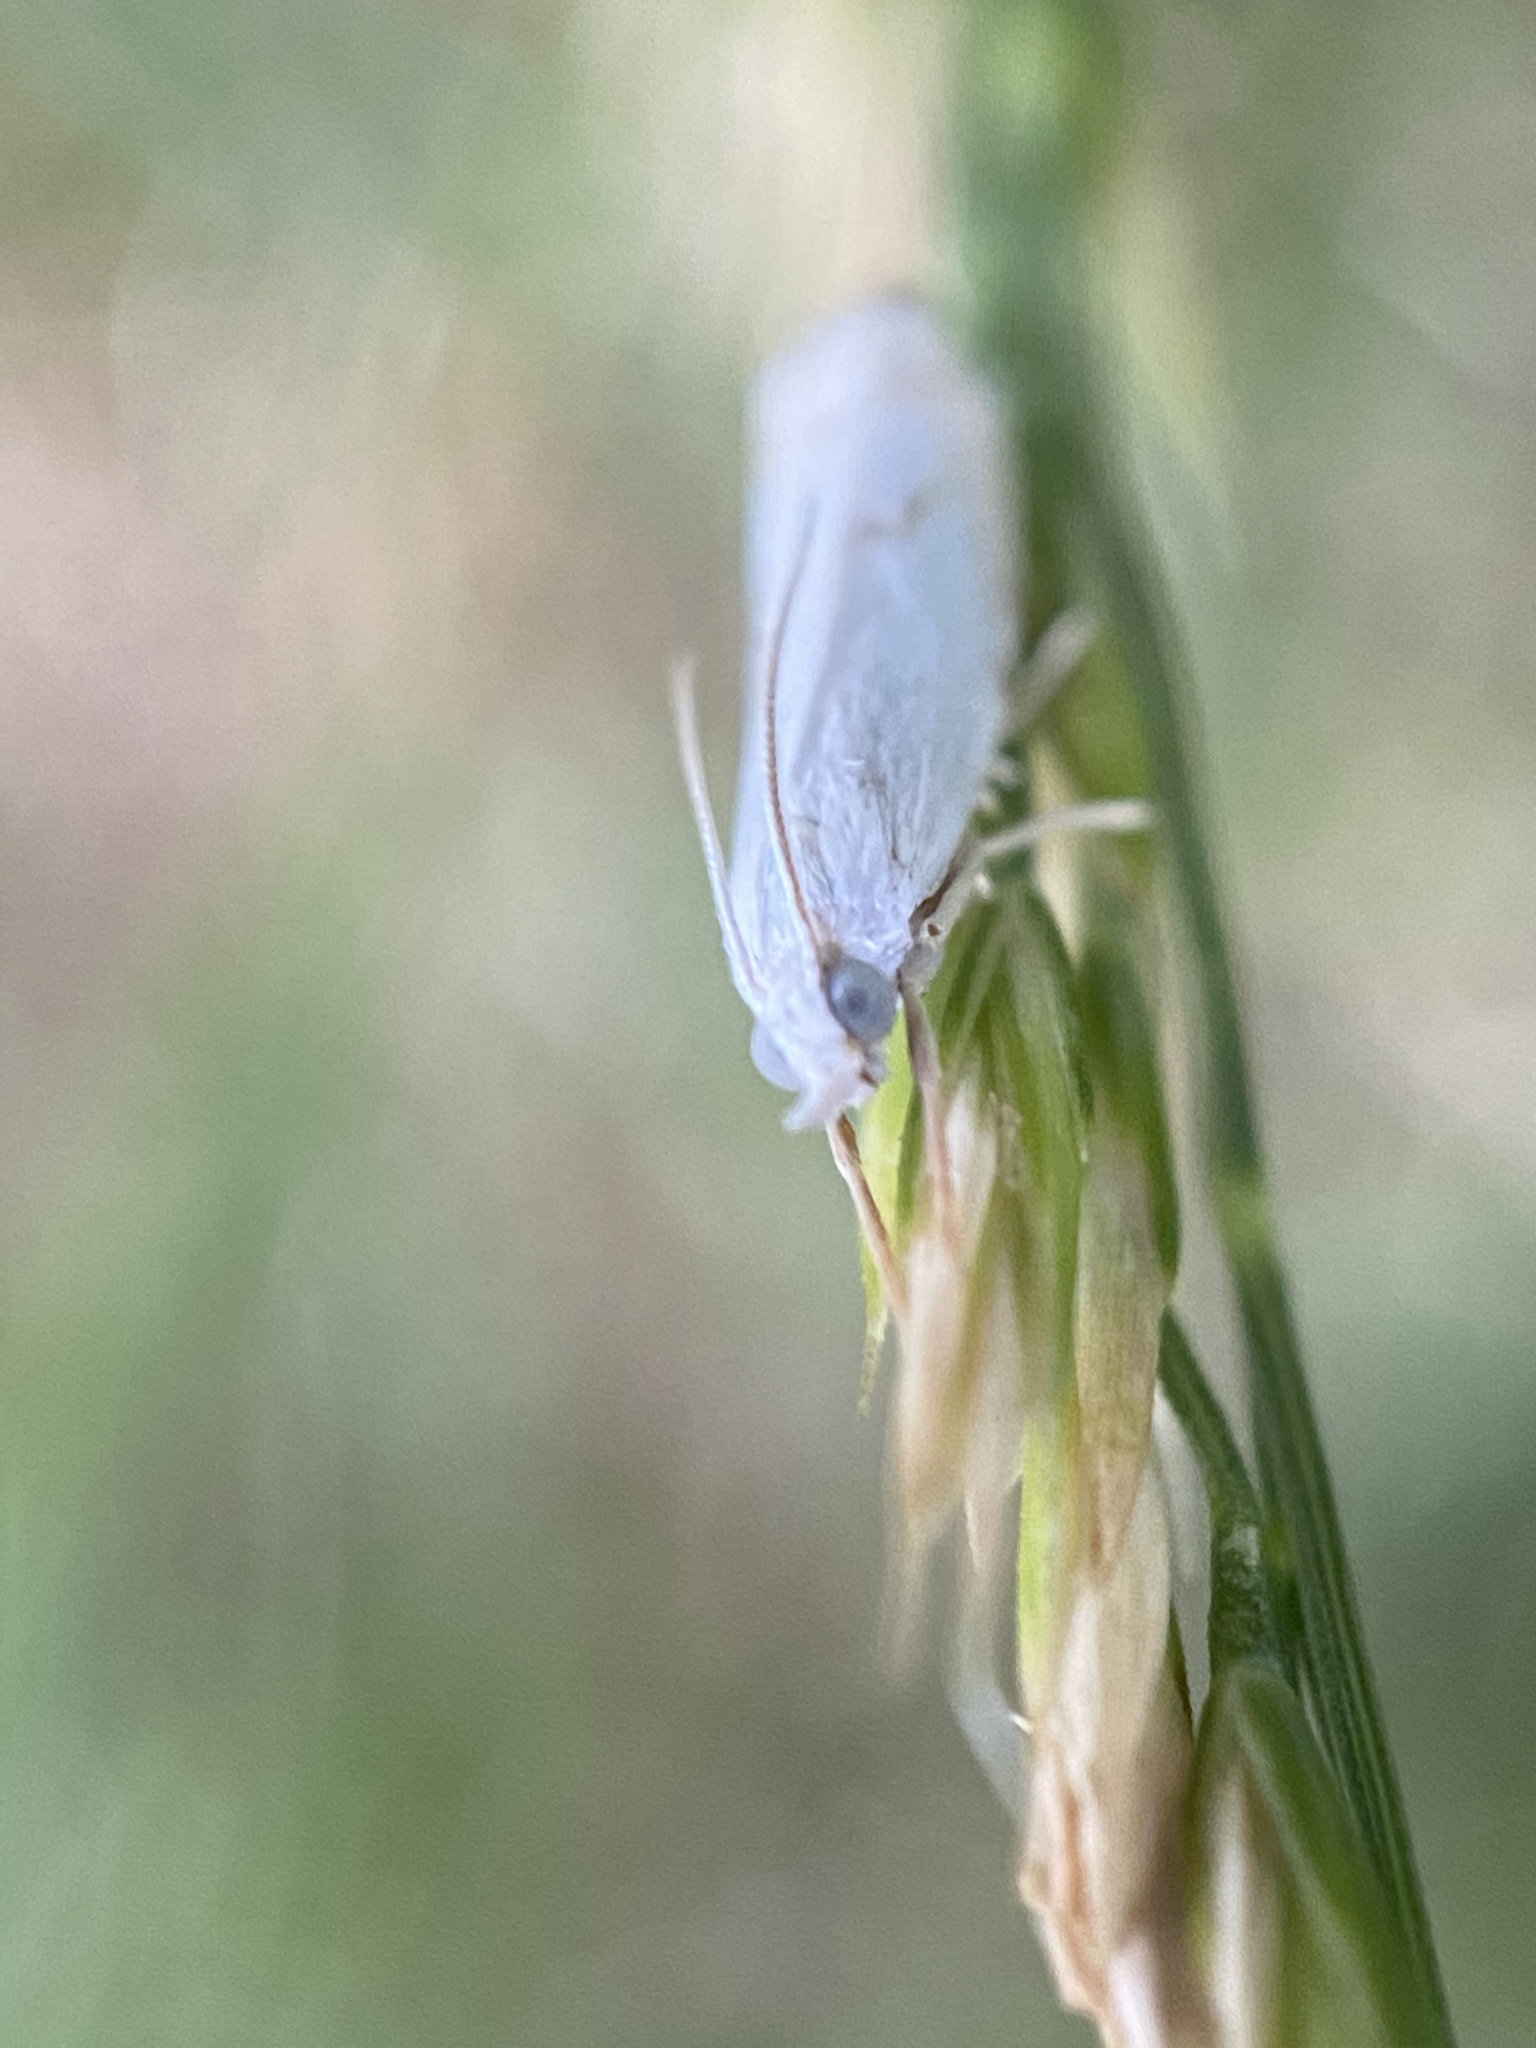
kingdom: Animalia
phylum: Arthropoda
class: Insecta
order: Lepidoptera
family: Crambidae
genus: Crambus
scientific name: Crambus albellus
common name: Small white grass-veneer
